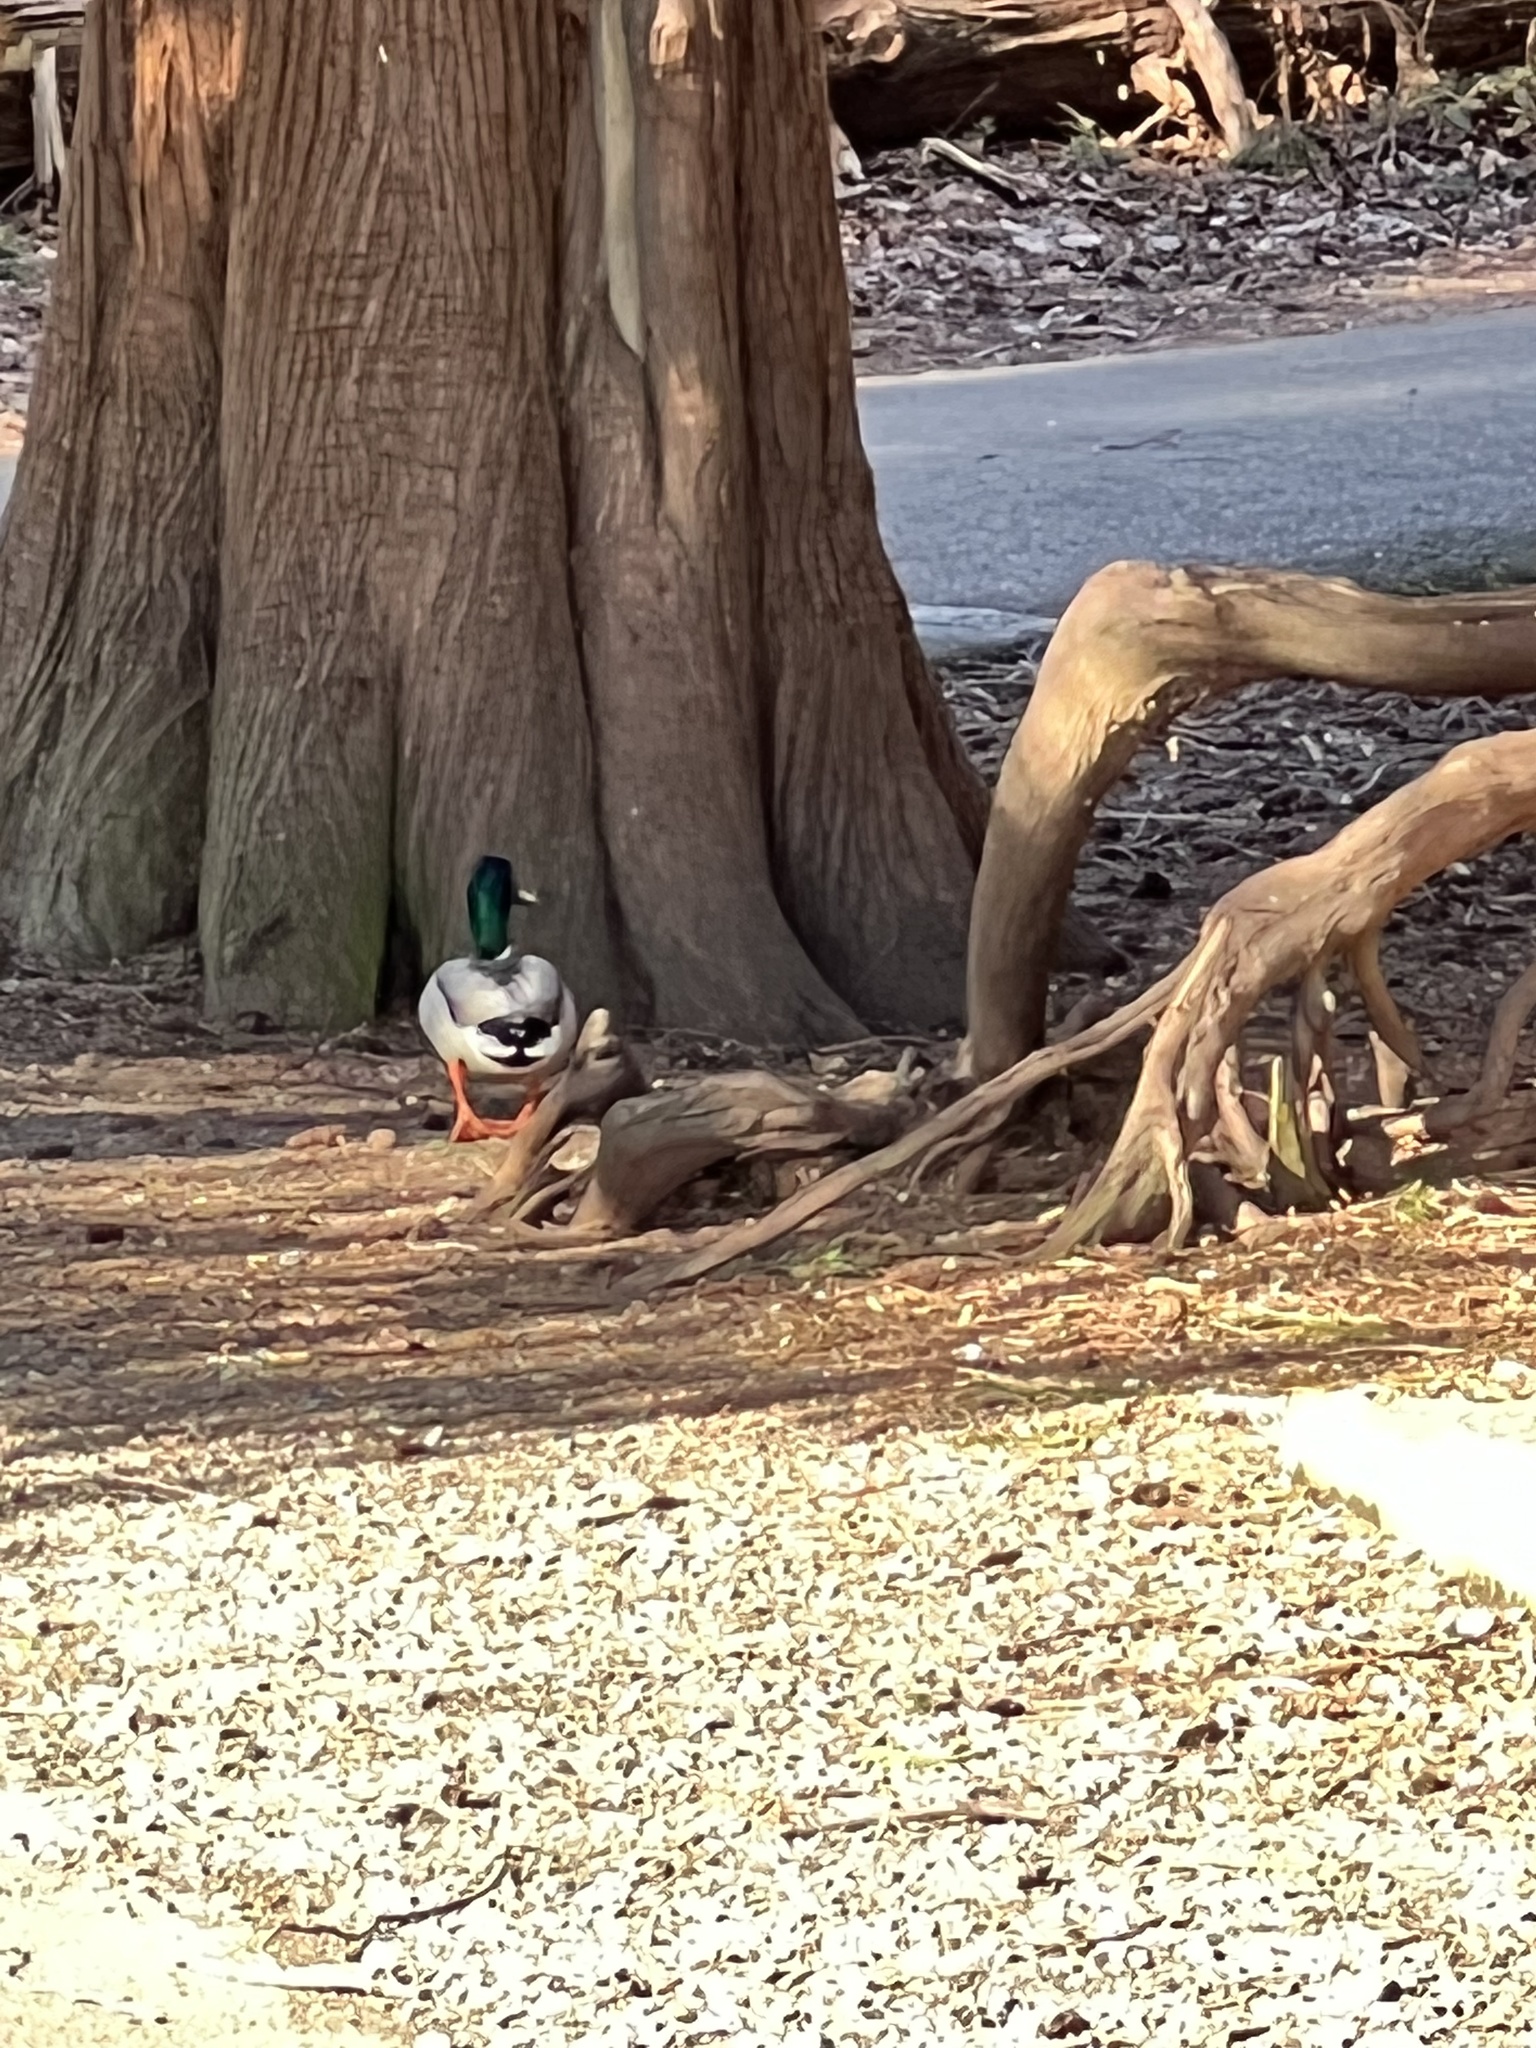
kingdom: Animalia
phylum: Chordata
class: Aves
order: Anseriformes
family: Anatidae
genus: Anas
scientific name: Anas platyrhynchos
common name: Mallard
